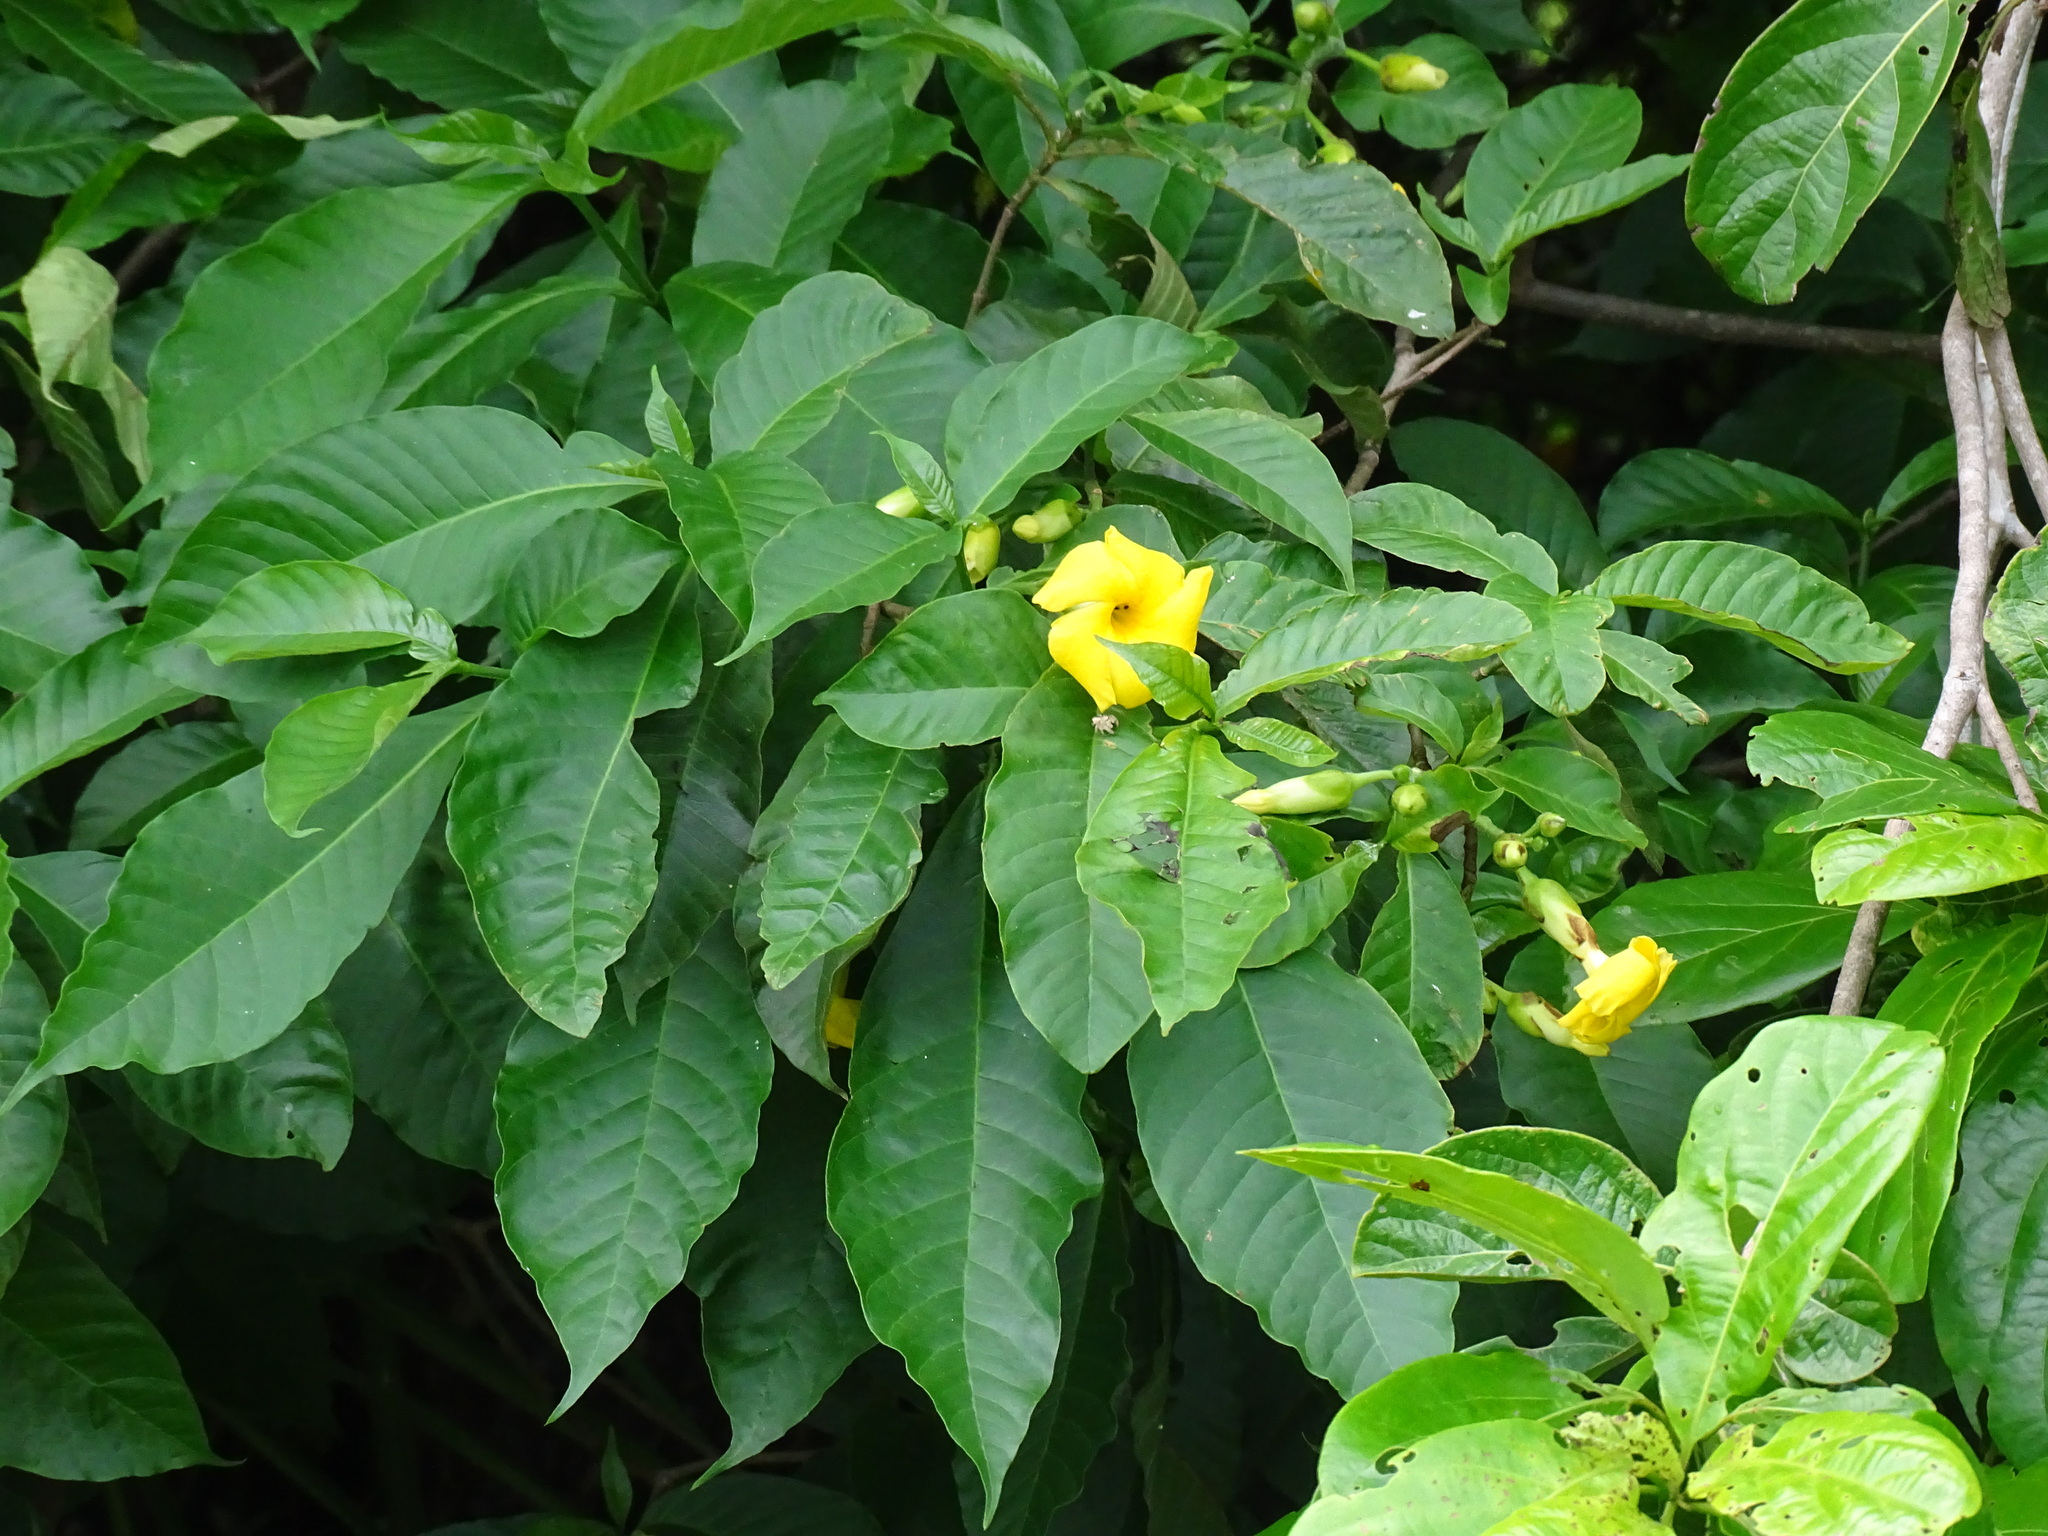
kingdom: Plantae
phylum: Tracheophyta
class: Magnoliopsida
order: Gentianales
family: Apocynaceae
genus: Tabernaemontana
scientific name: Tabernaemontana glabra
